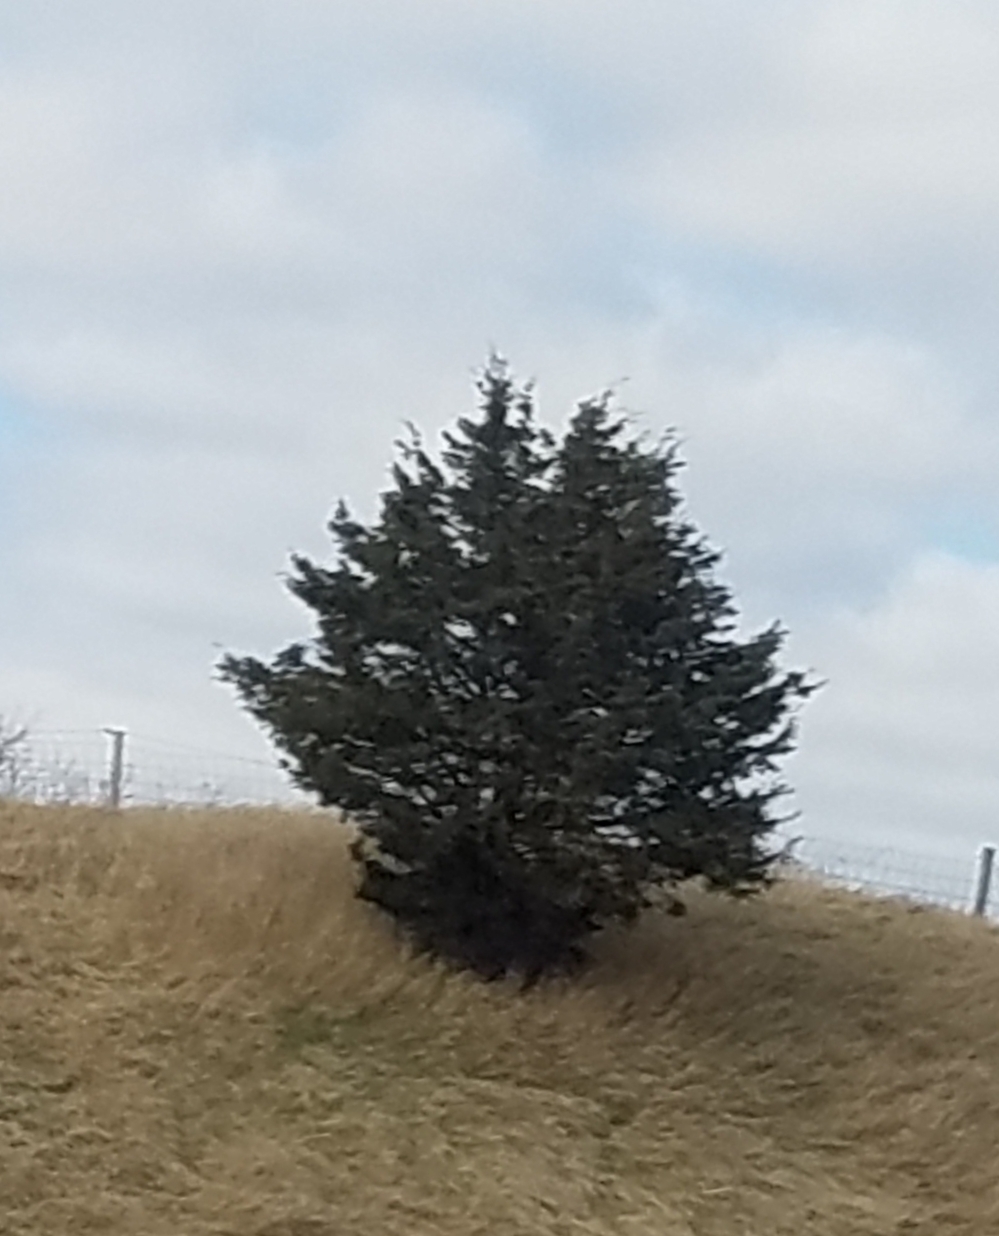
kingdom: Plantae
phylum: Tracheophyta
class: Pinopsida
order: Pinales
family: Cupressaceae
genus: Juniperus
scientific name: Juniperus virginiana
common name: Red juniper
